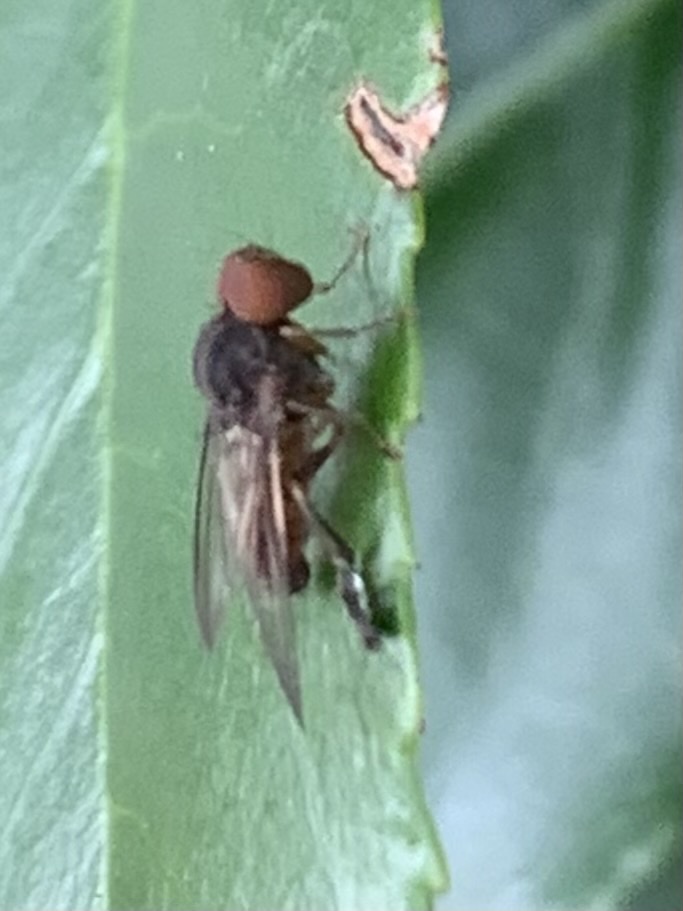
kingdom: Animalia
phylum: Arthropoda
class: Insecta
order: Diptera
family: Platypezidae
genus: Calotarsa
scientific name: Calotarsa insignis
